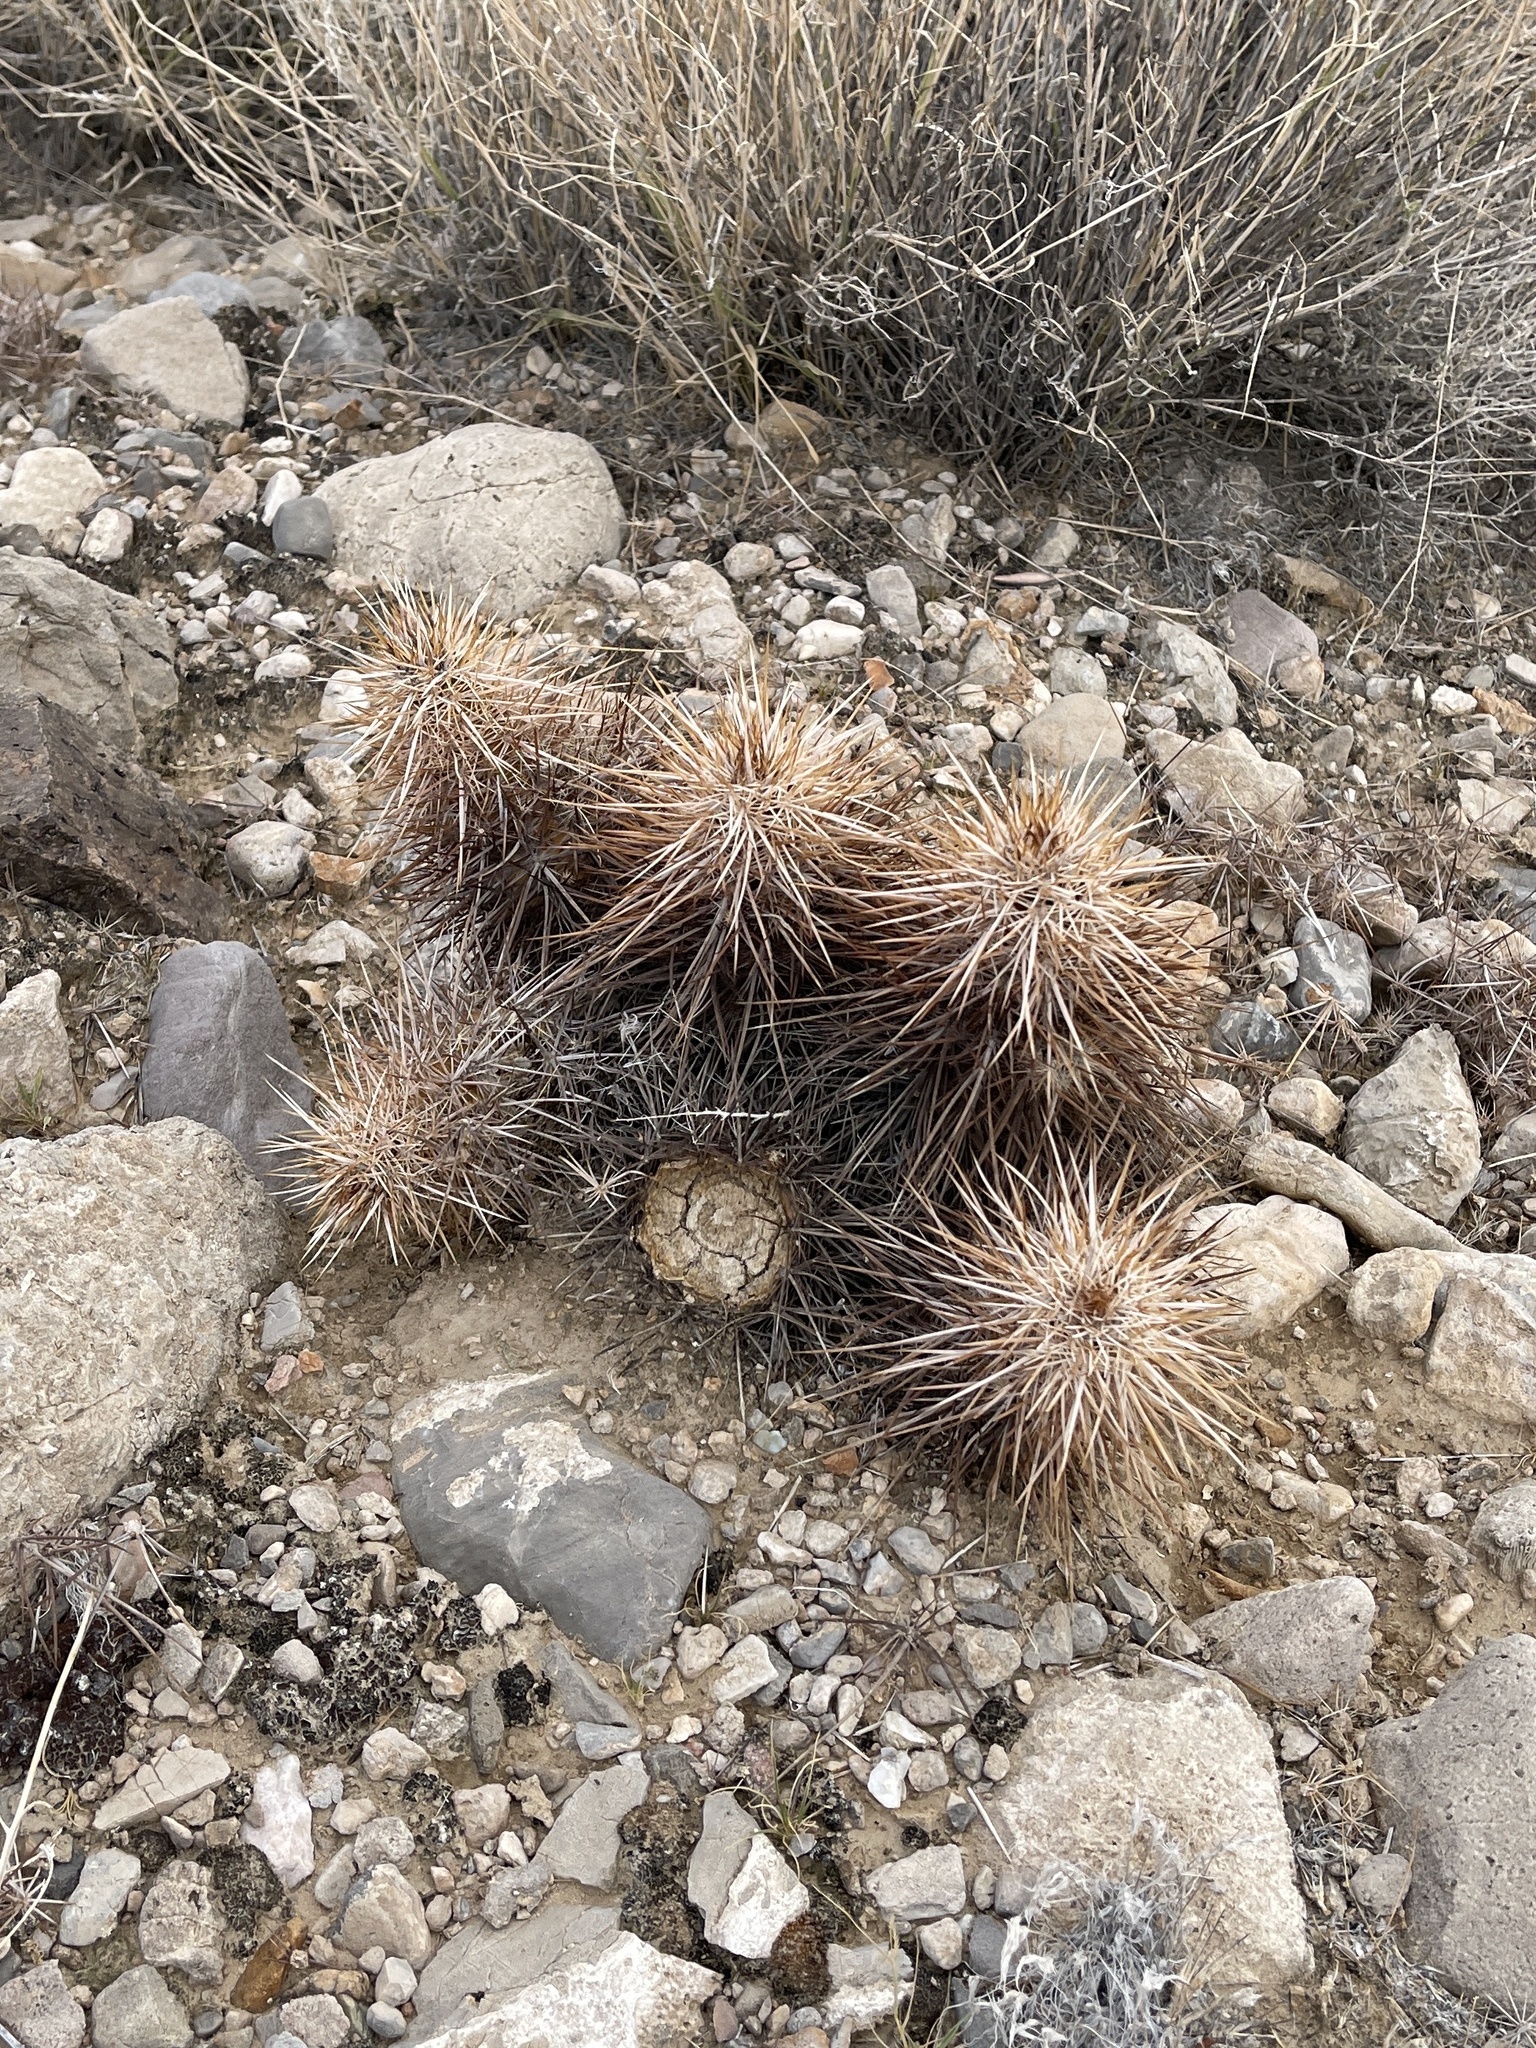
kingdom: Plantae
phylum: Tracheophyta
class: Magnoliopsida
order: Caryophyllales
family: Cactaceae
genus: Echinocereus
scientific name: Echinocereus engelmannii
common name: Engelmann's hedgehog cactus
